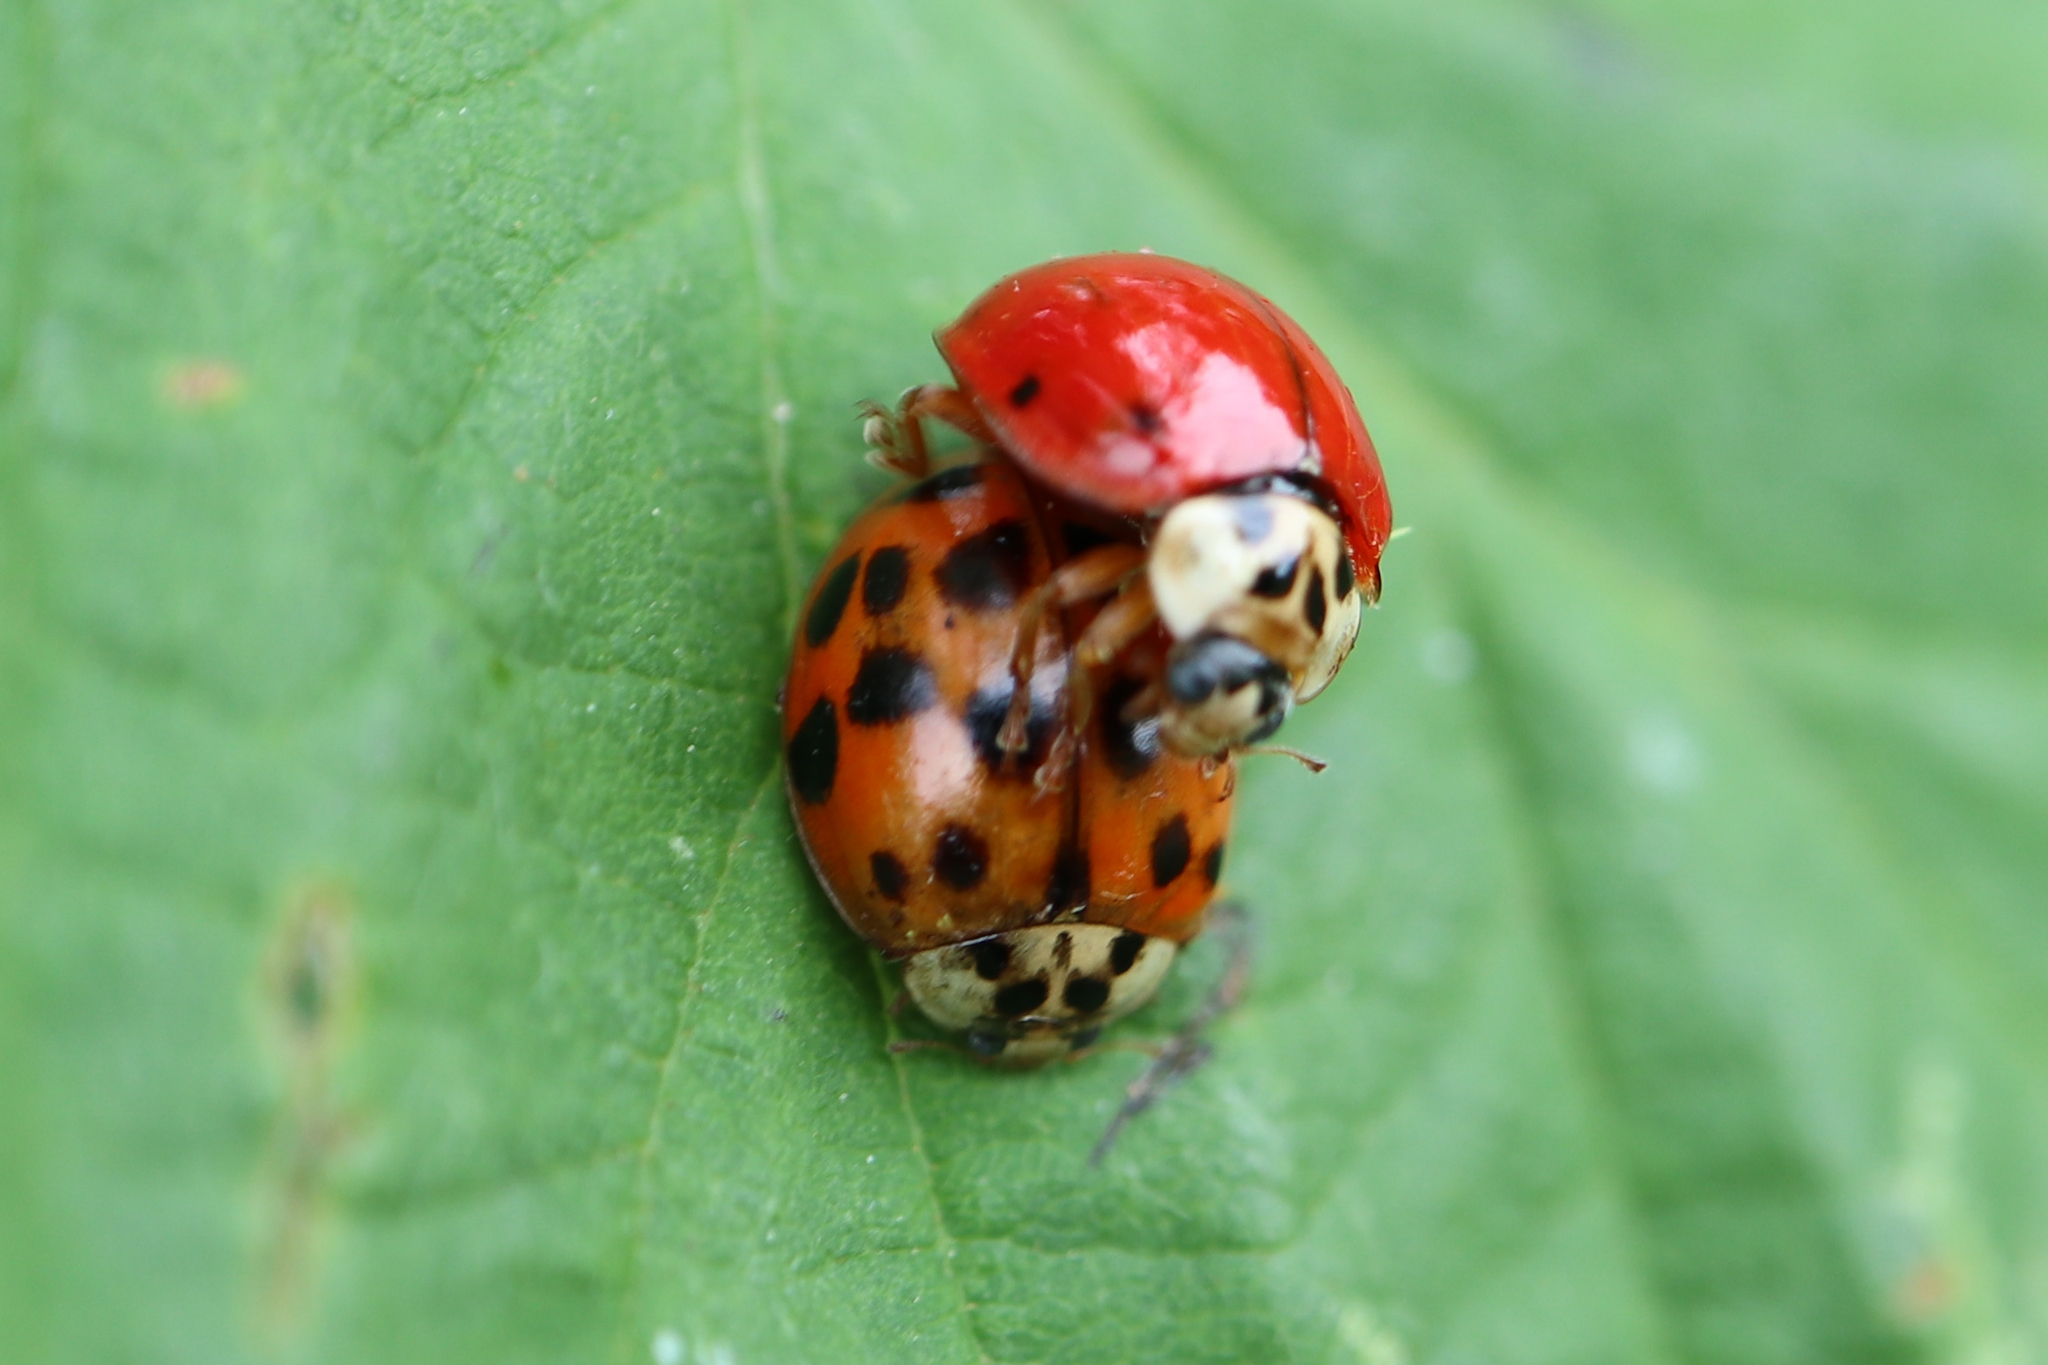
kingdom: Animalia
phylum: Arthropoda
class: Insecta
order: Coleoptera
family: Coccinellidae
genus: Harmonia
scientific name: Harmonia axyridis
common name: Harlequin ladybird
